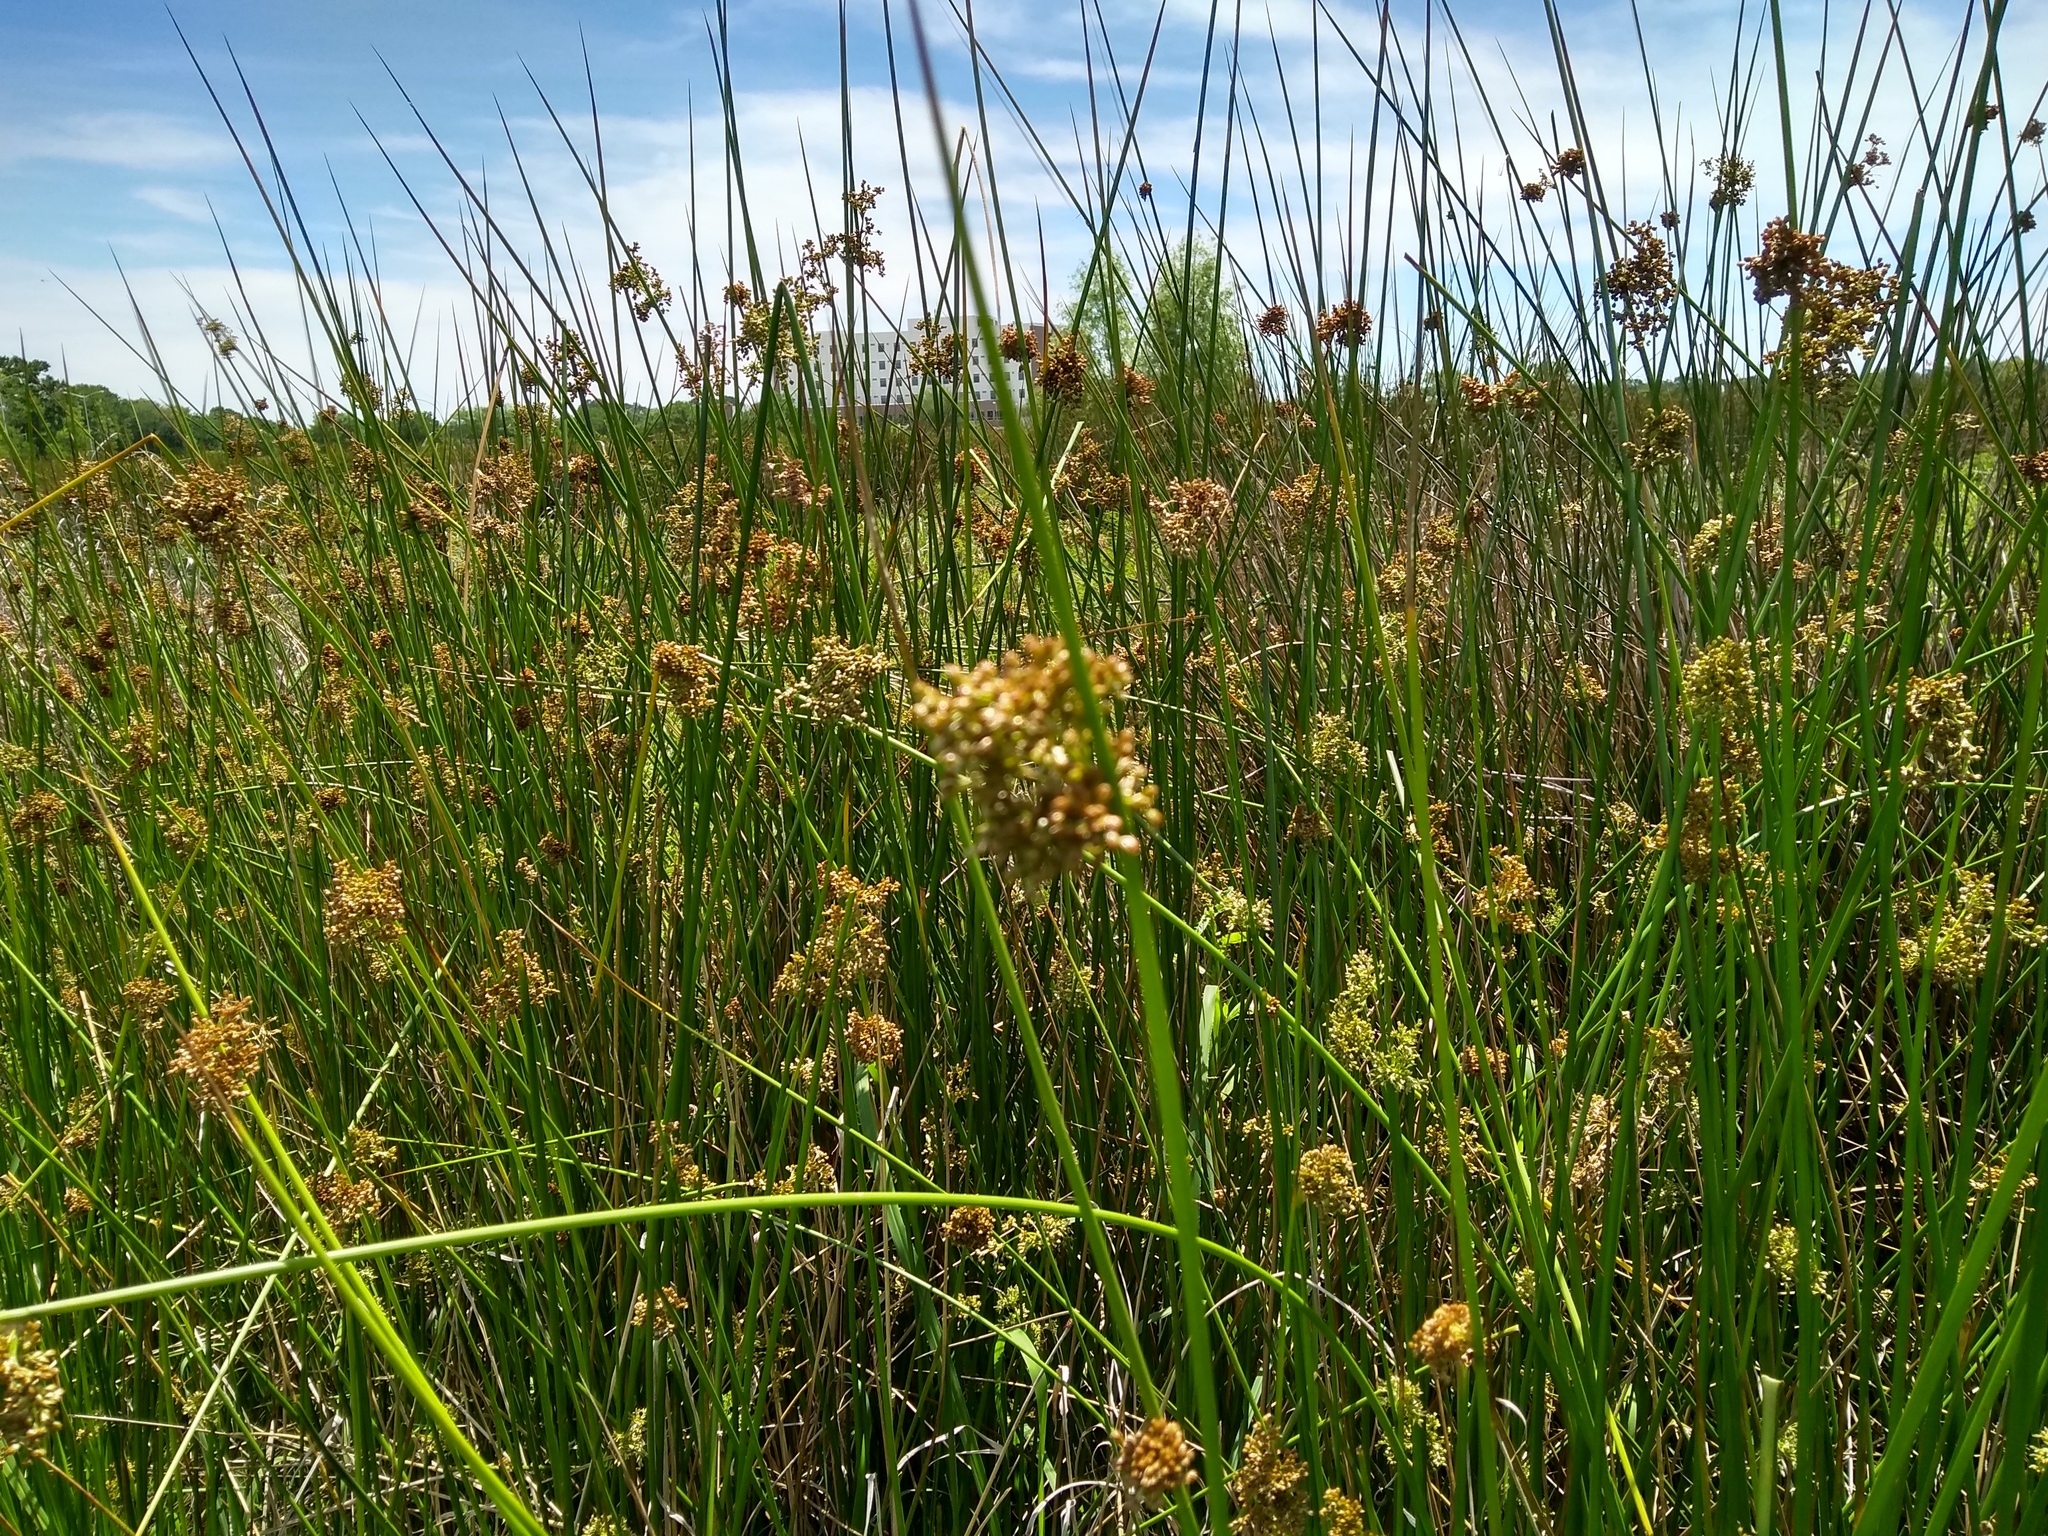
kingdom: Plantae
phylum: Tracheophyta
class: Liliopsida
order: Poales
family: Juncaceae
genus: Juncus
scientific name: Juncus effusus
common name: Soft rush
